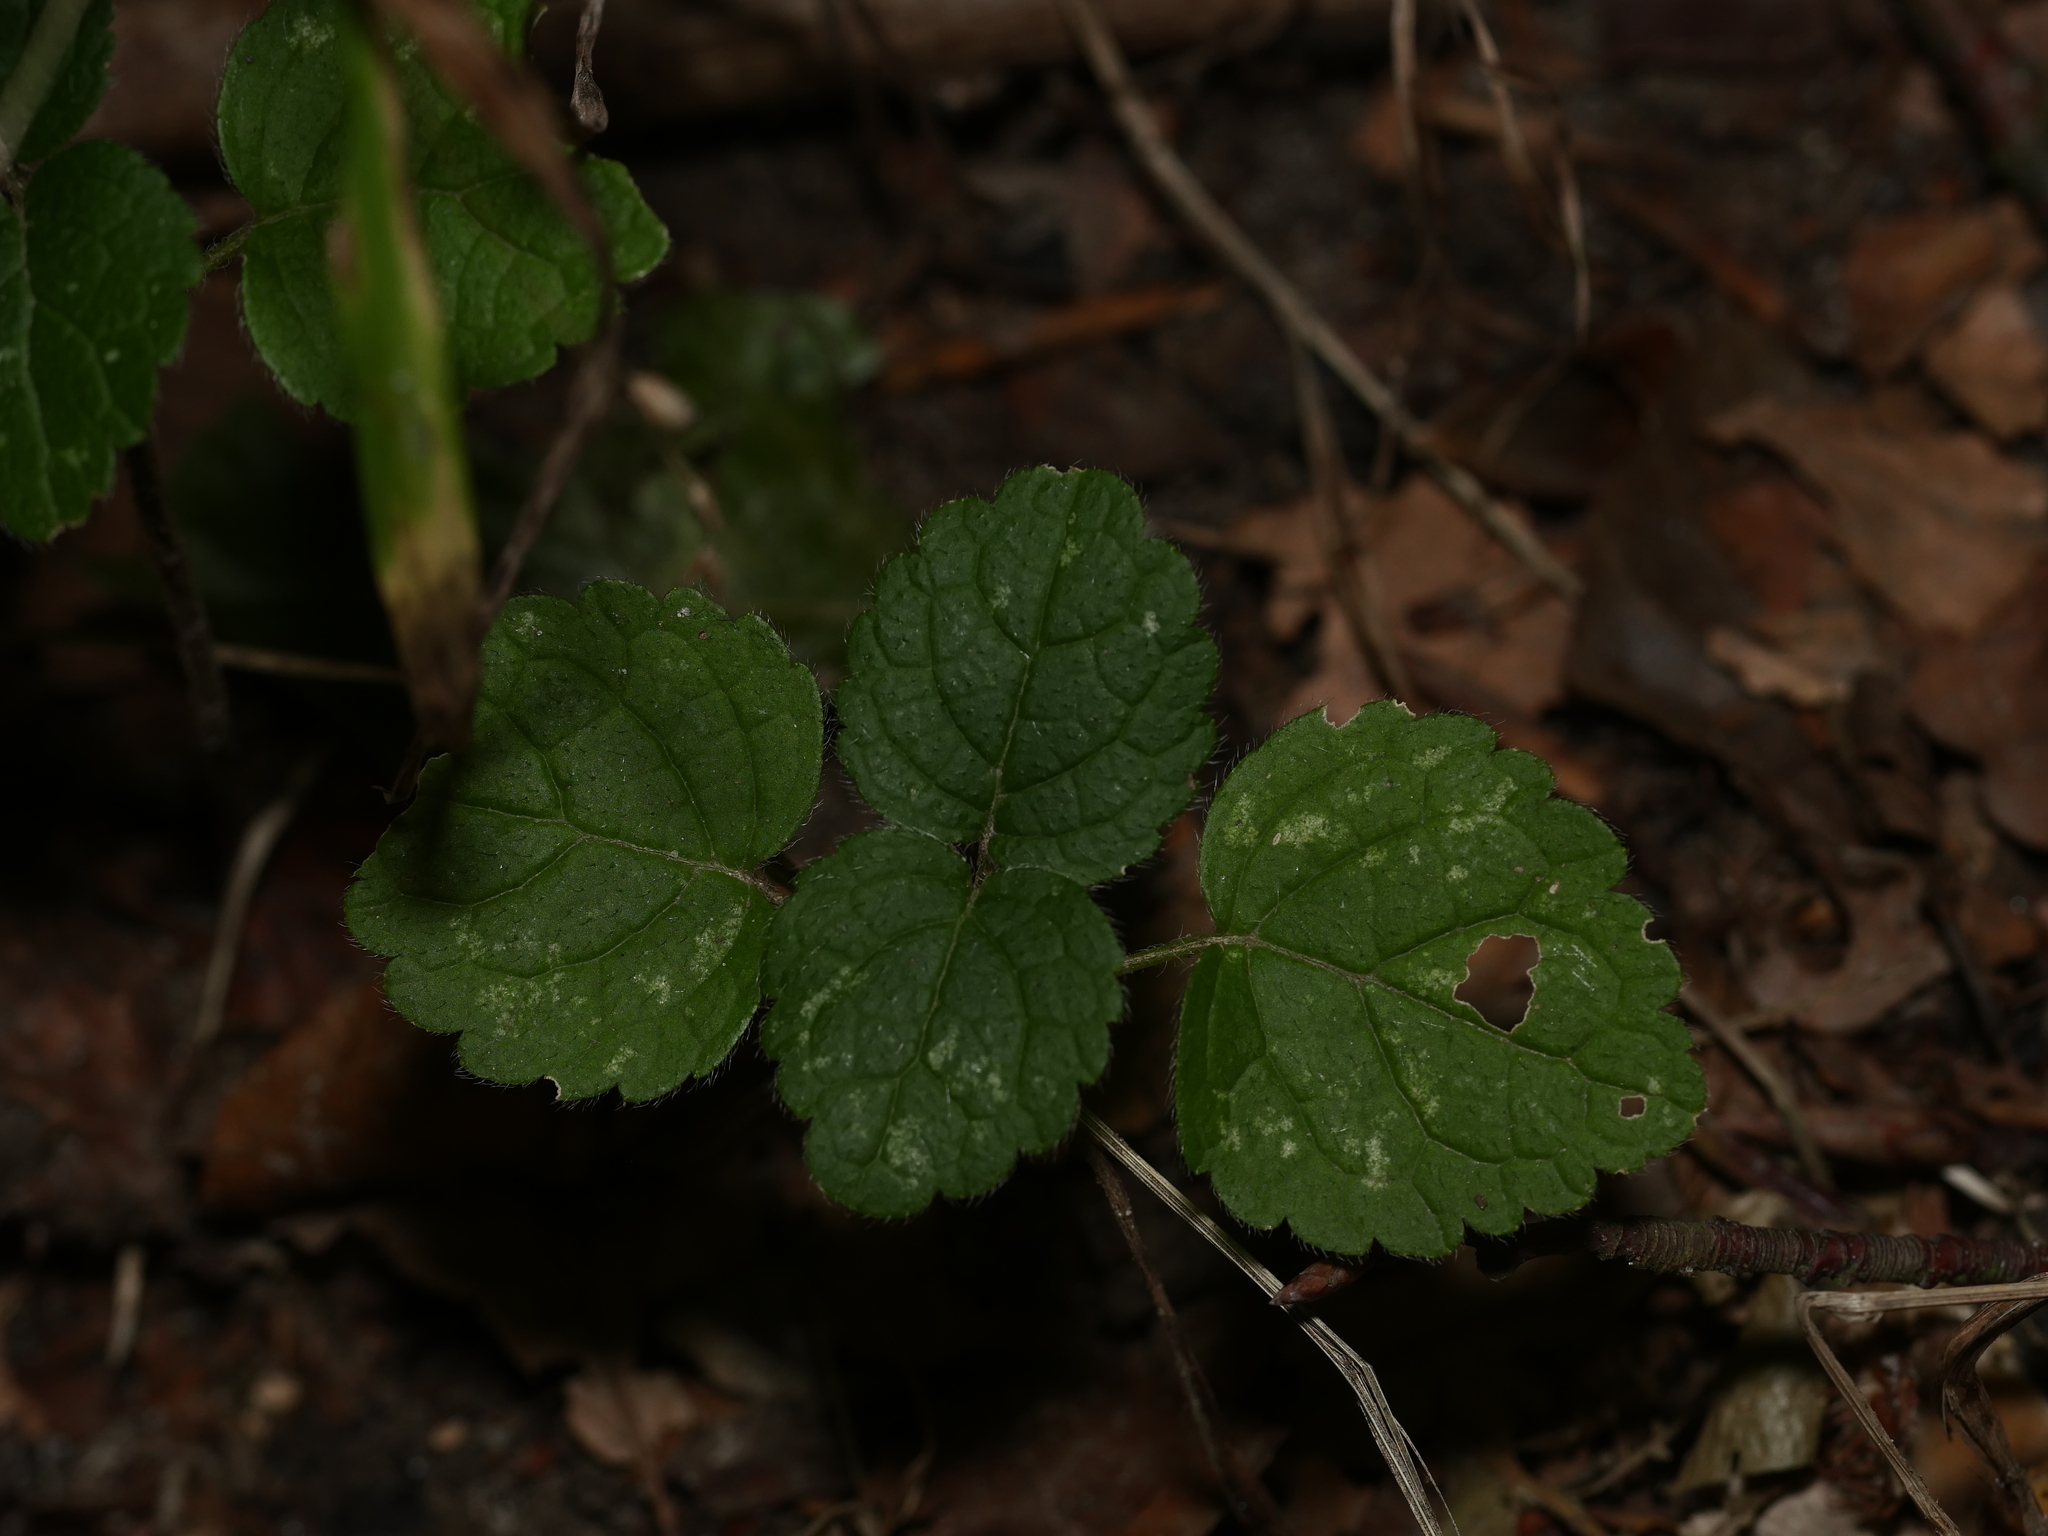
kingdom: Plantae
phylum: Tracheophyta
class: Magnoliopsida
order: Lamiales
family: Lamiaceae
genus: Lamium
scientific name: Lamium galeobdolon
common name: Yellow archangel
